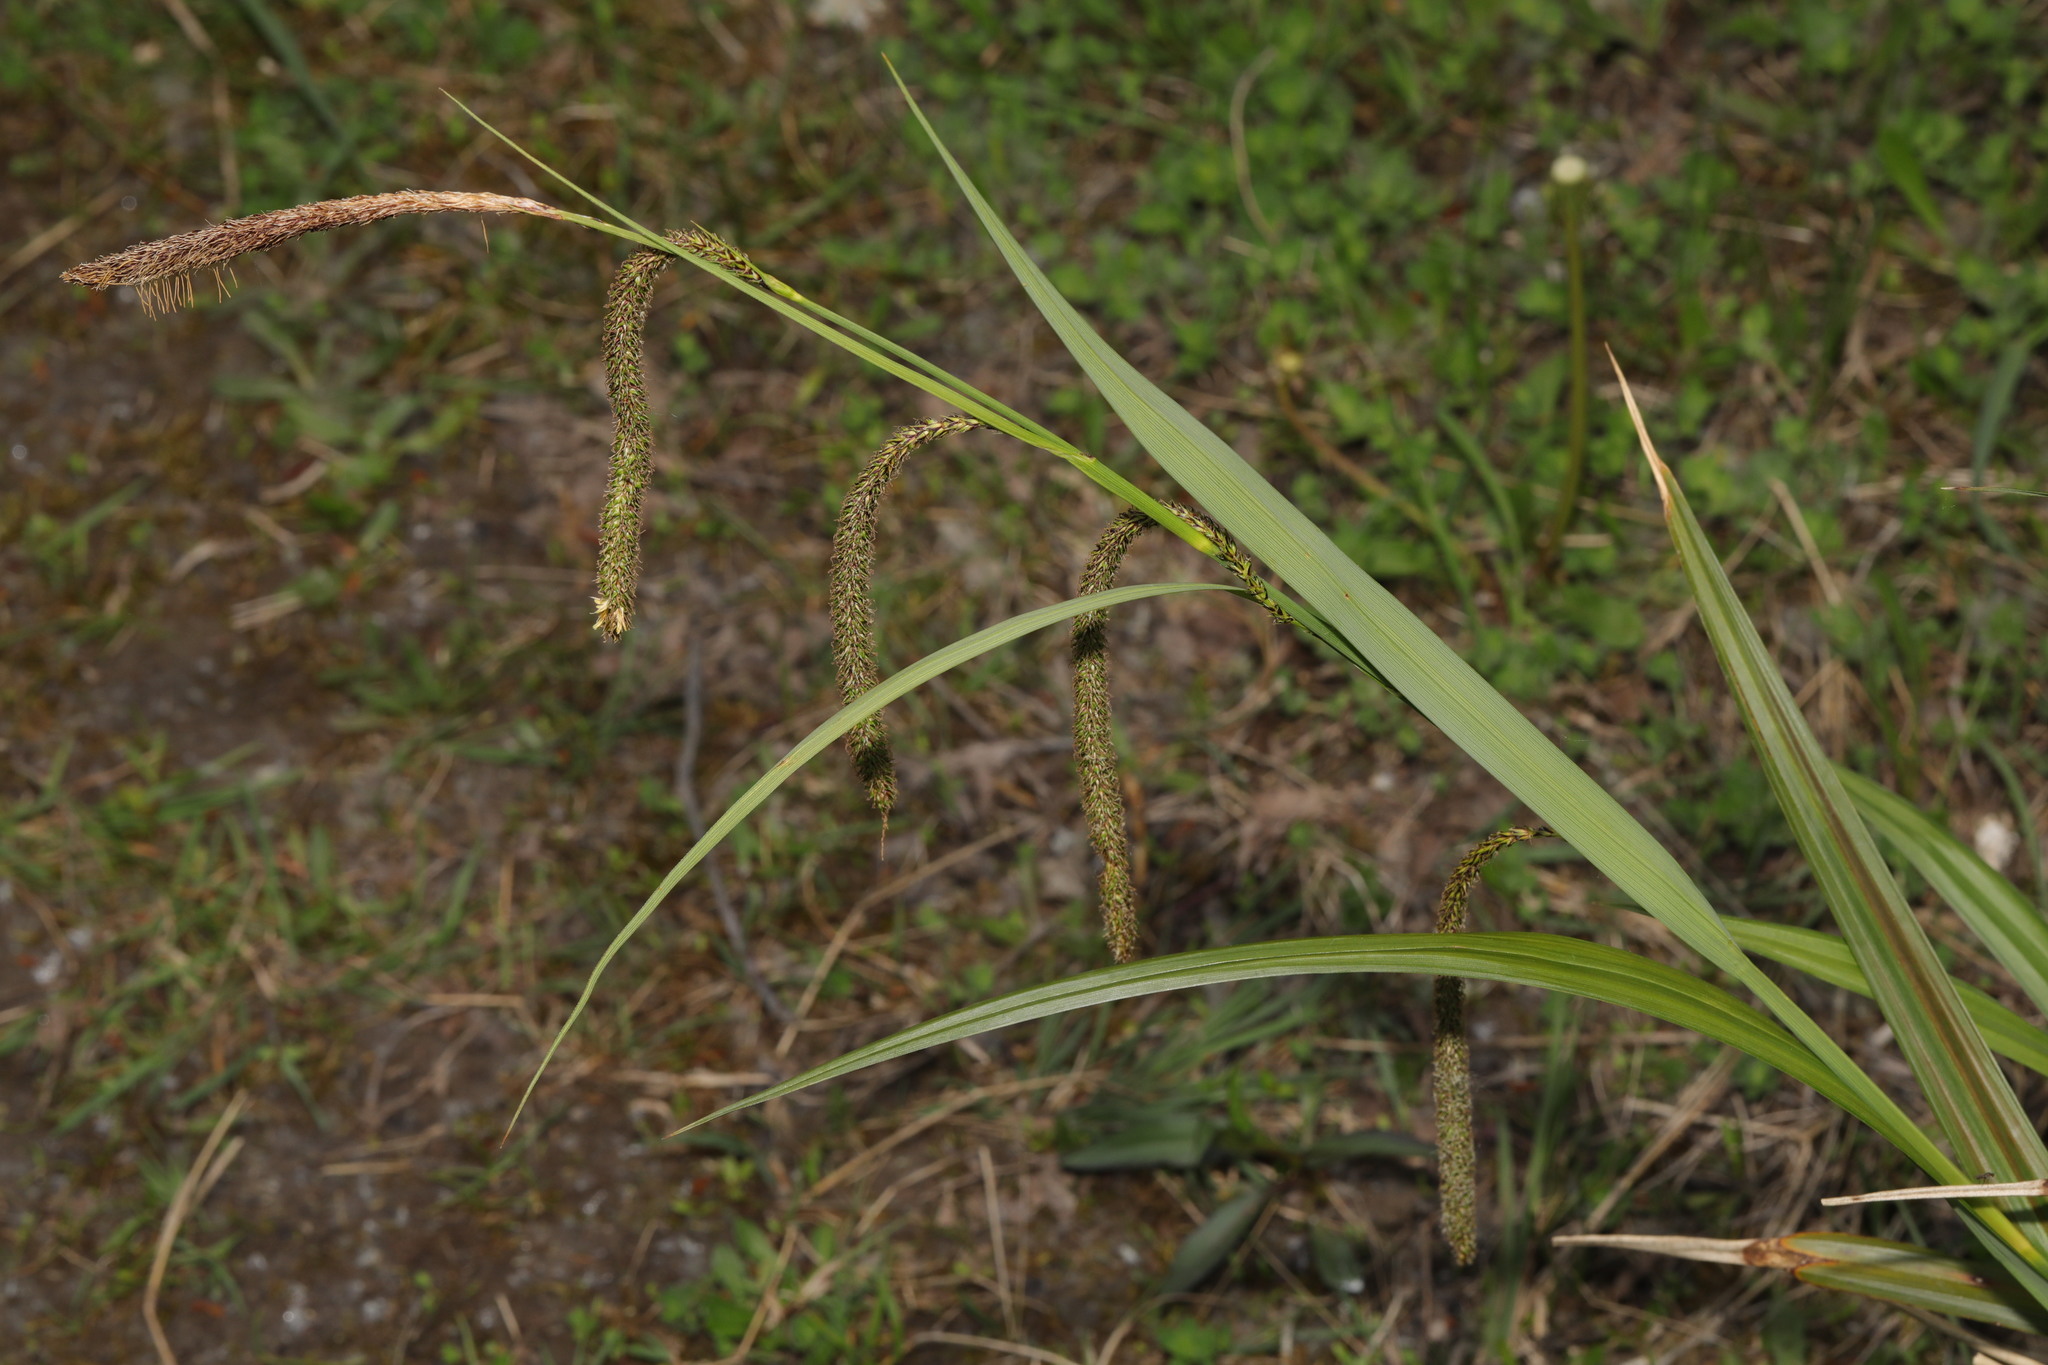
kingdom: Plantae
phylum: Tracheophyta
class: Liliopsida
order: Poales
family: Cyperaceae
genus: Carex
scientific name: Carex pendula
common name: Pendulous sedge
